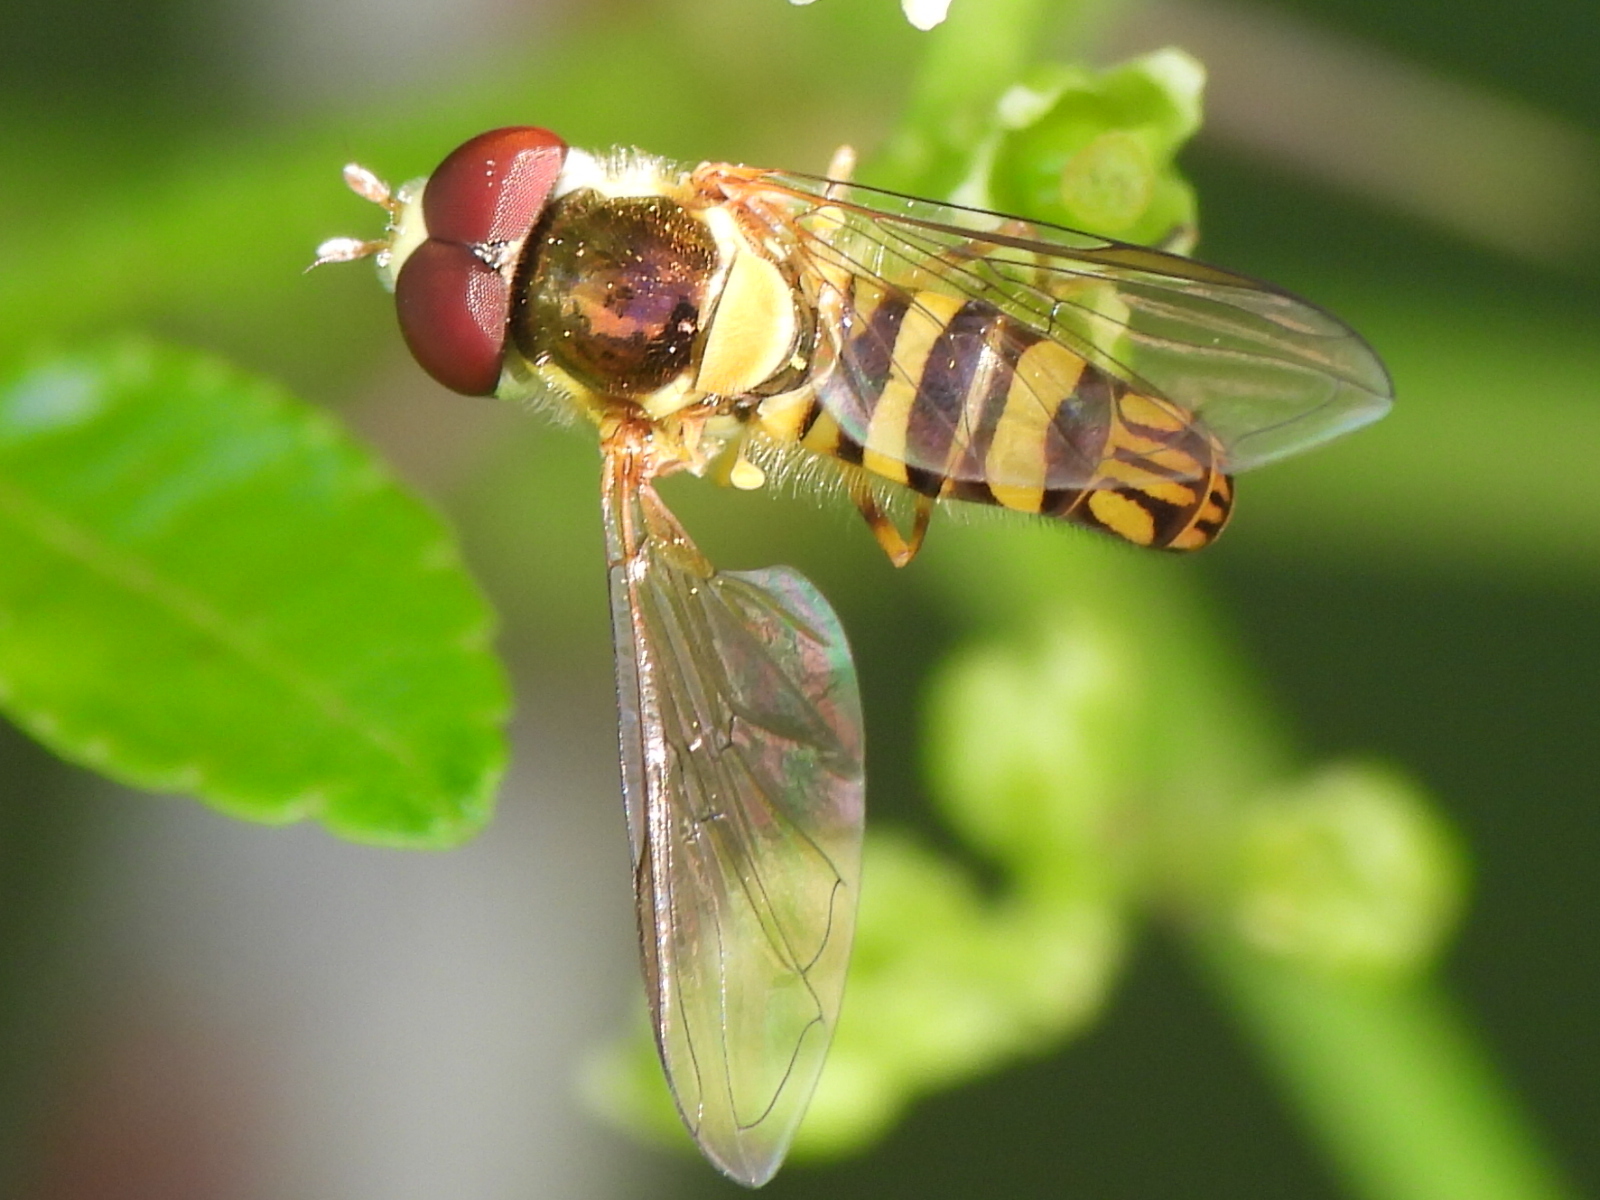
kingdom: Animalia
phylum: Arthropoda
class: Insecta
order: Diptera
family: Syrphidae
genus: Allograpta
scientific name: Allograpta obliqua
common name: Common oblique syrphid
